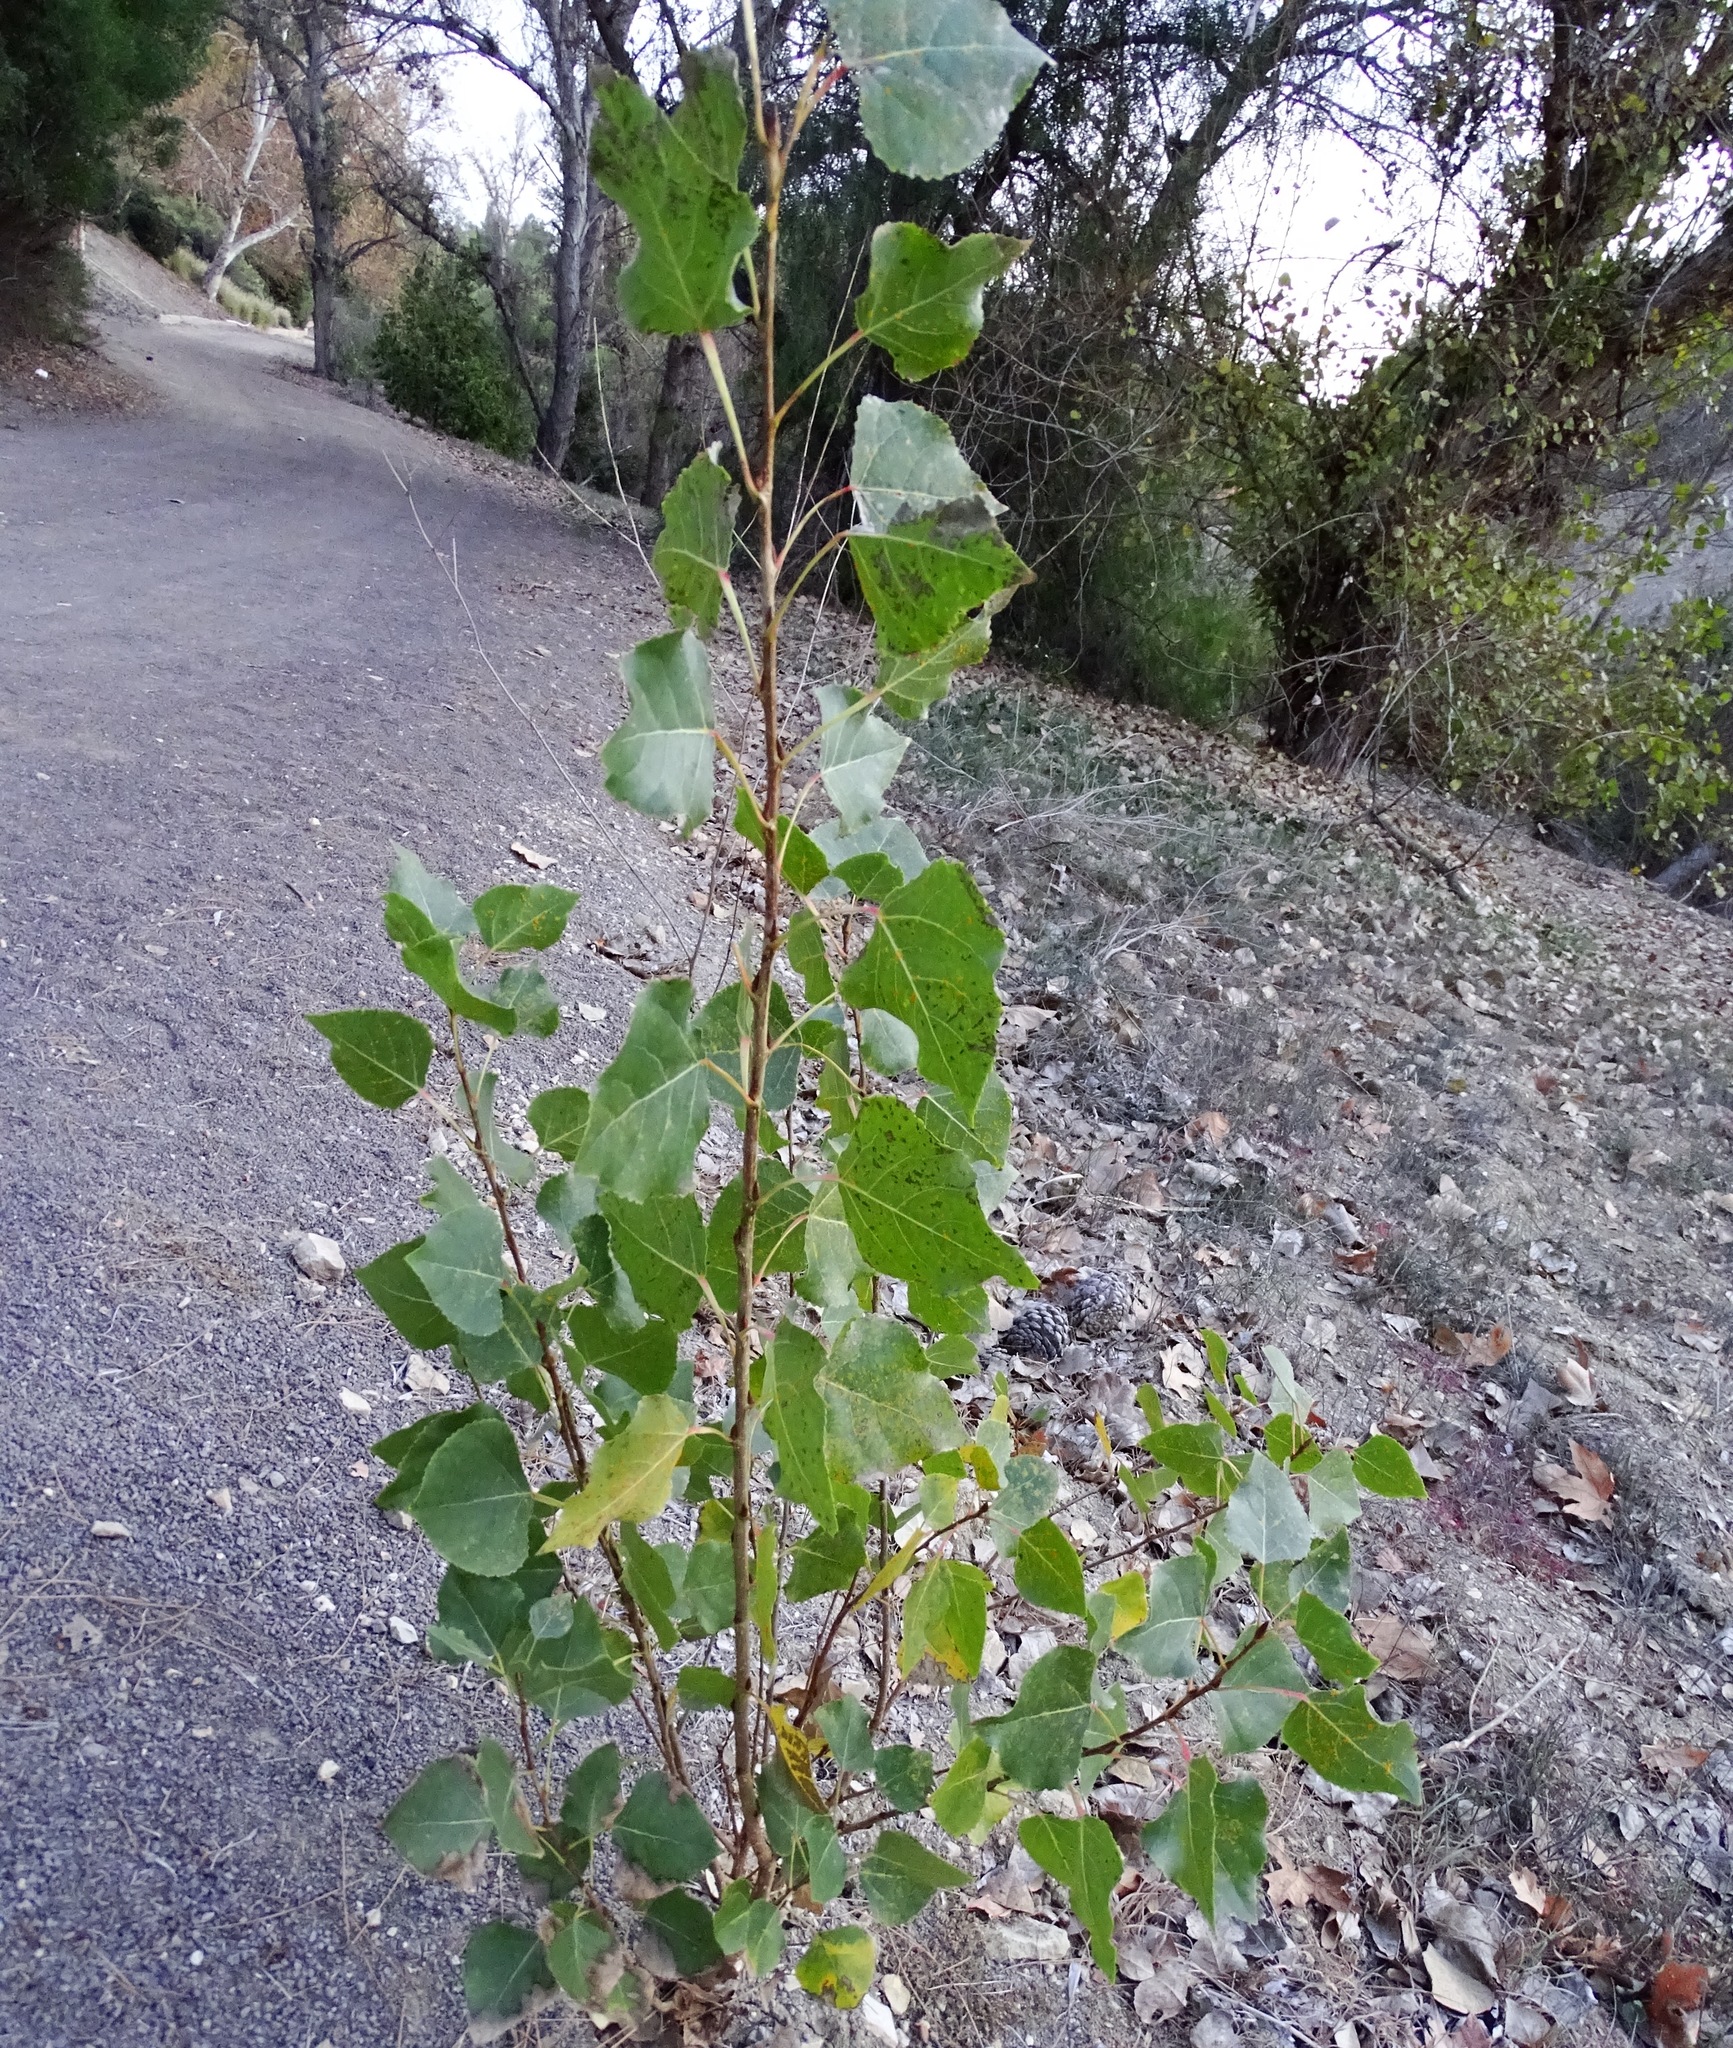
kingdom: Plantae
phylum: Tracheophyta
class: Magnoliopsida
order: Malpighiales
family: Salicaceae
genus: Populus
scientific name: Populus fremontii
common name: Fremont's cottonwood
